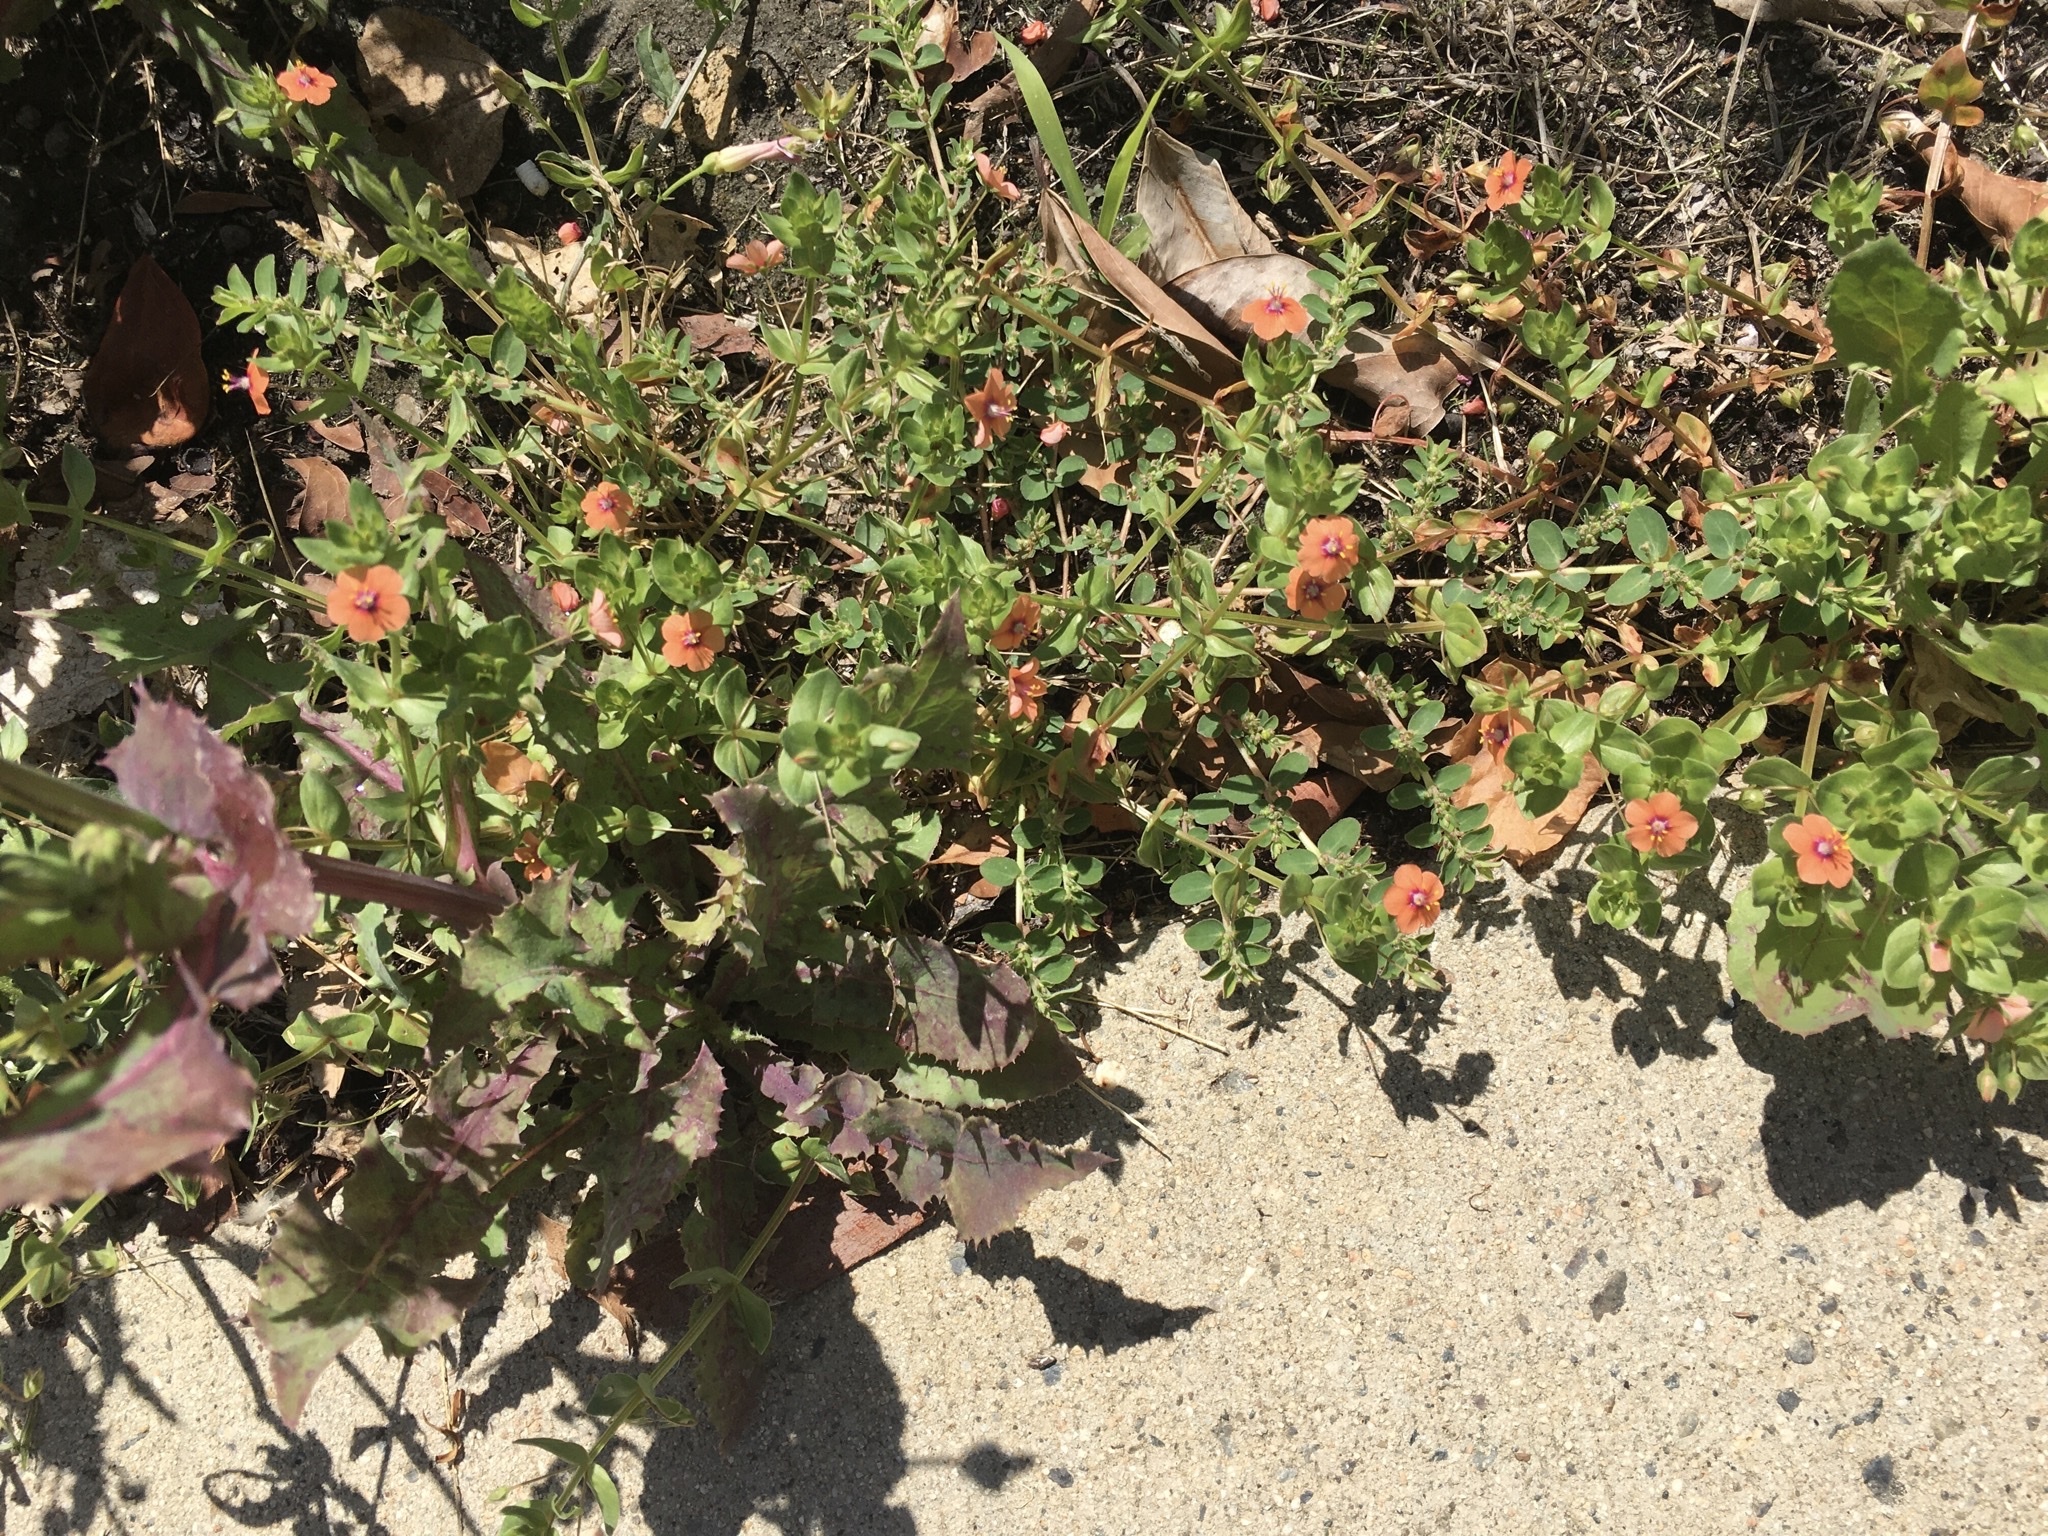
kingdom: Plantae
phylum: Tracheophyta
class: Magnoliopsida
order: Ericales
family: Primulaceae
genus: Lysimachia
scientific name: Lysimachia arvensis
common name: Scarlet pimpernel
